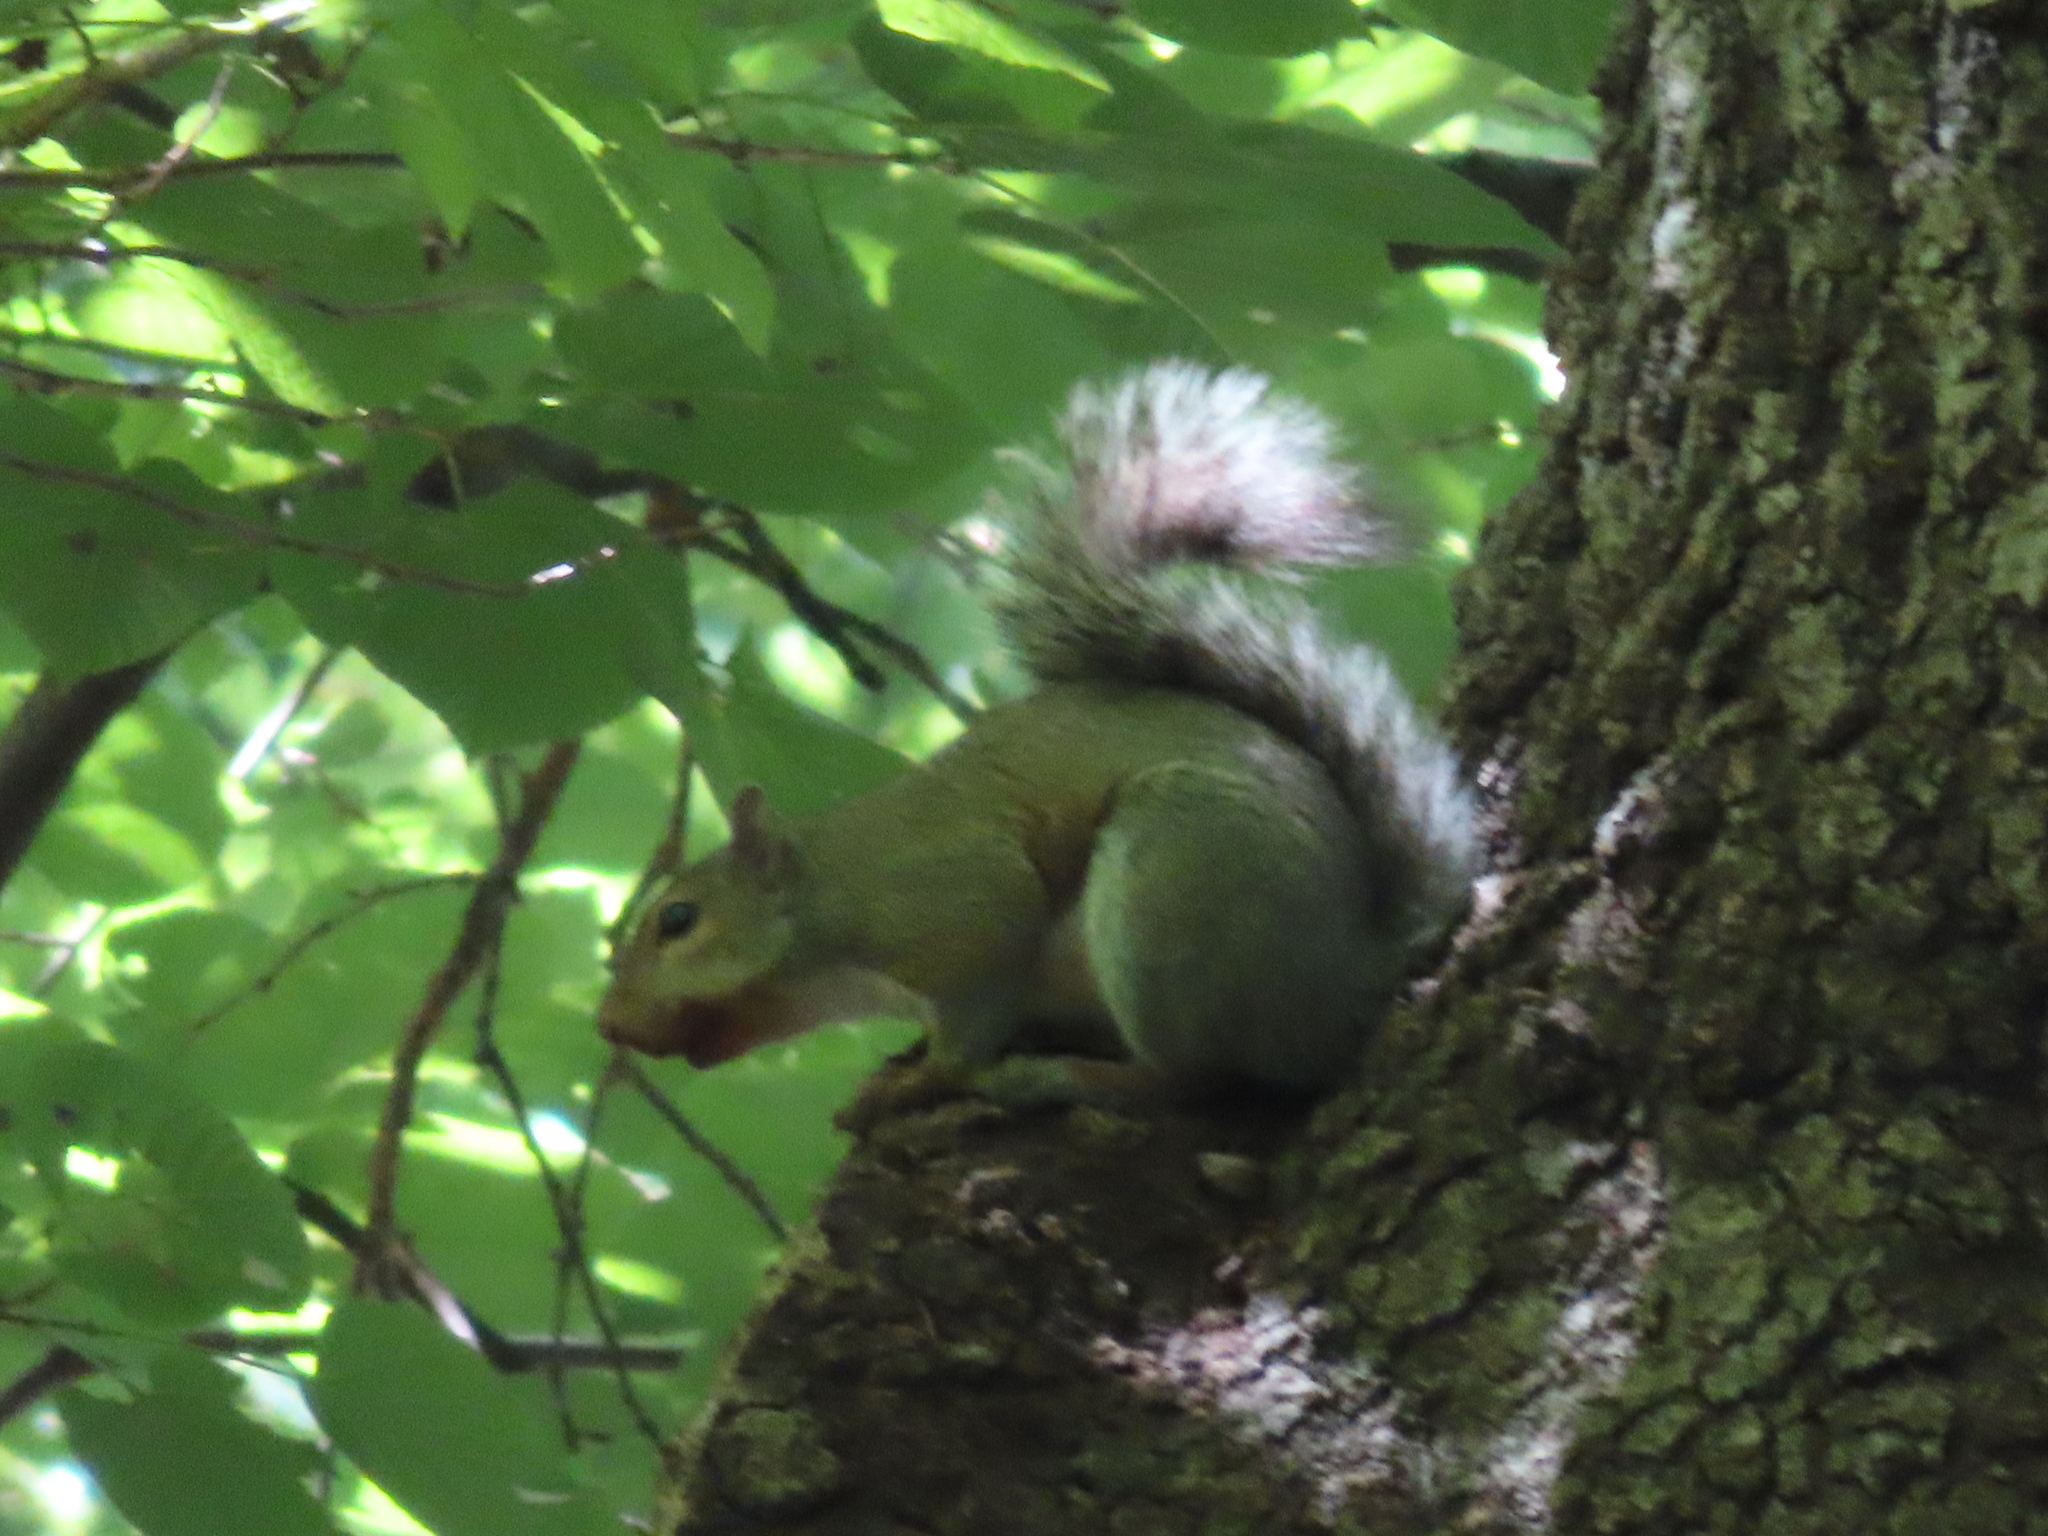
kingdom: Animalia
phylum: Chordata
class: Mammalia
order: Rodentia
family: Sciuridae
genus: Sciurus
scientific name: Sciurus carolinensis
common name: Eastern gray squirrel
